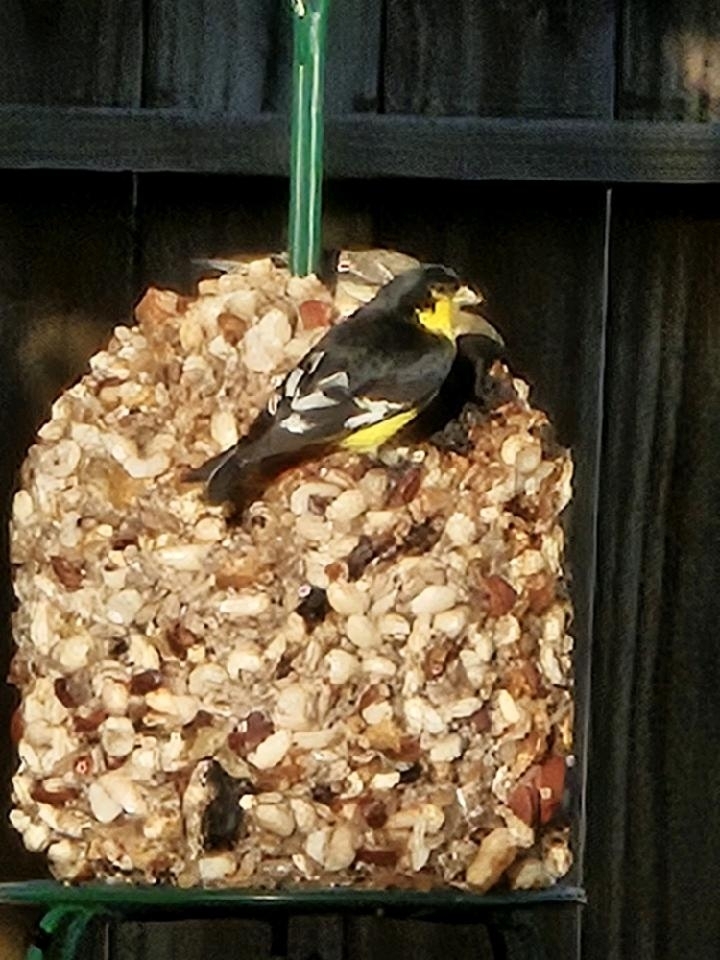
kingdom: Animalia
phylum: Chordata
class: Aves
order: Passeriformes
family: Fringillidae
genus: Spinus
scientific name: Spinus psaltria
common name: Lesser goldfinch
